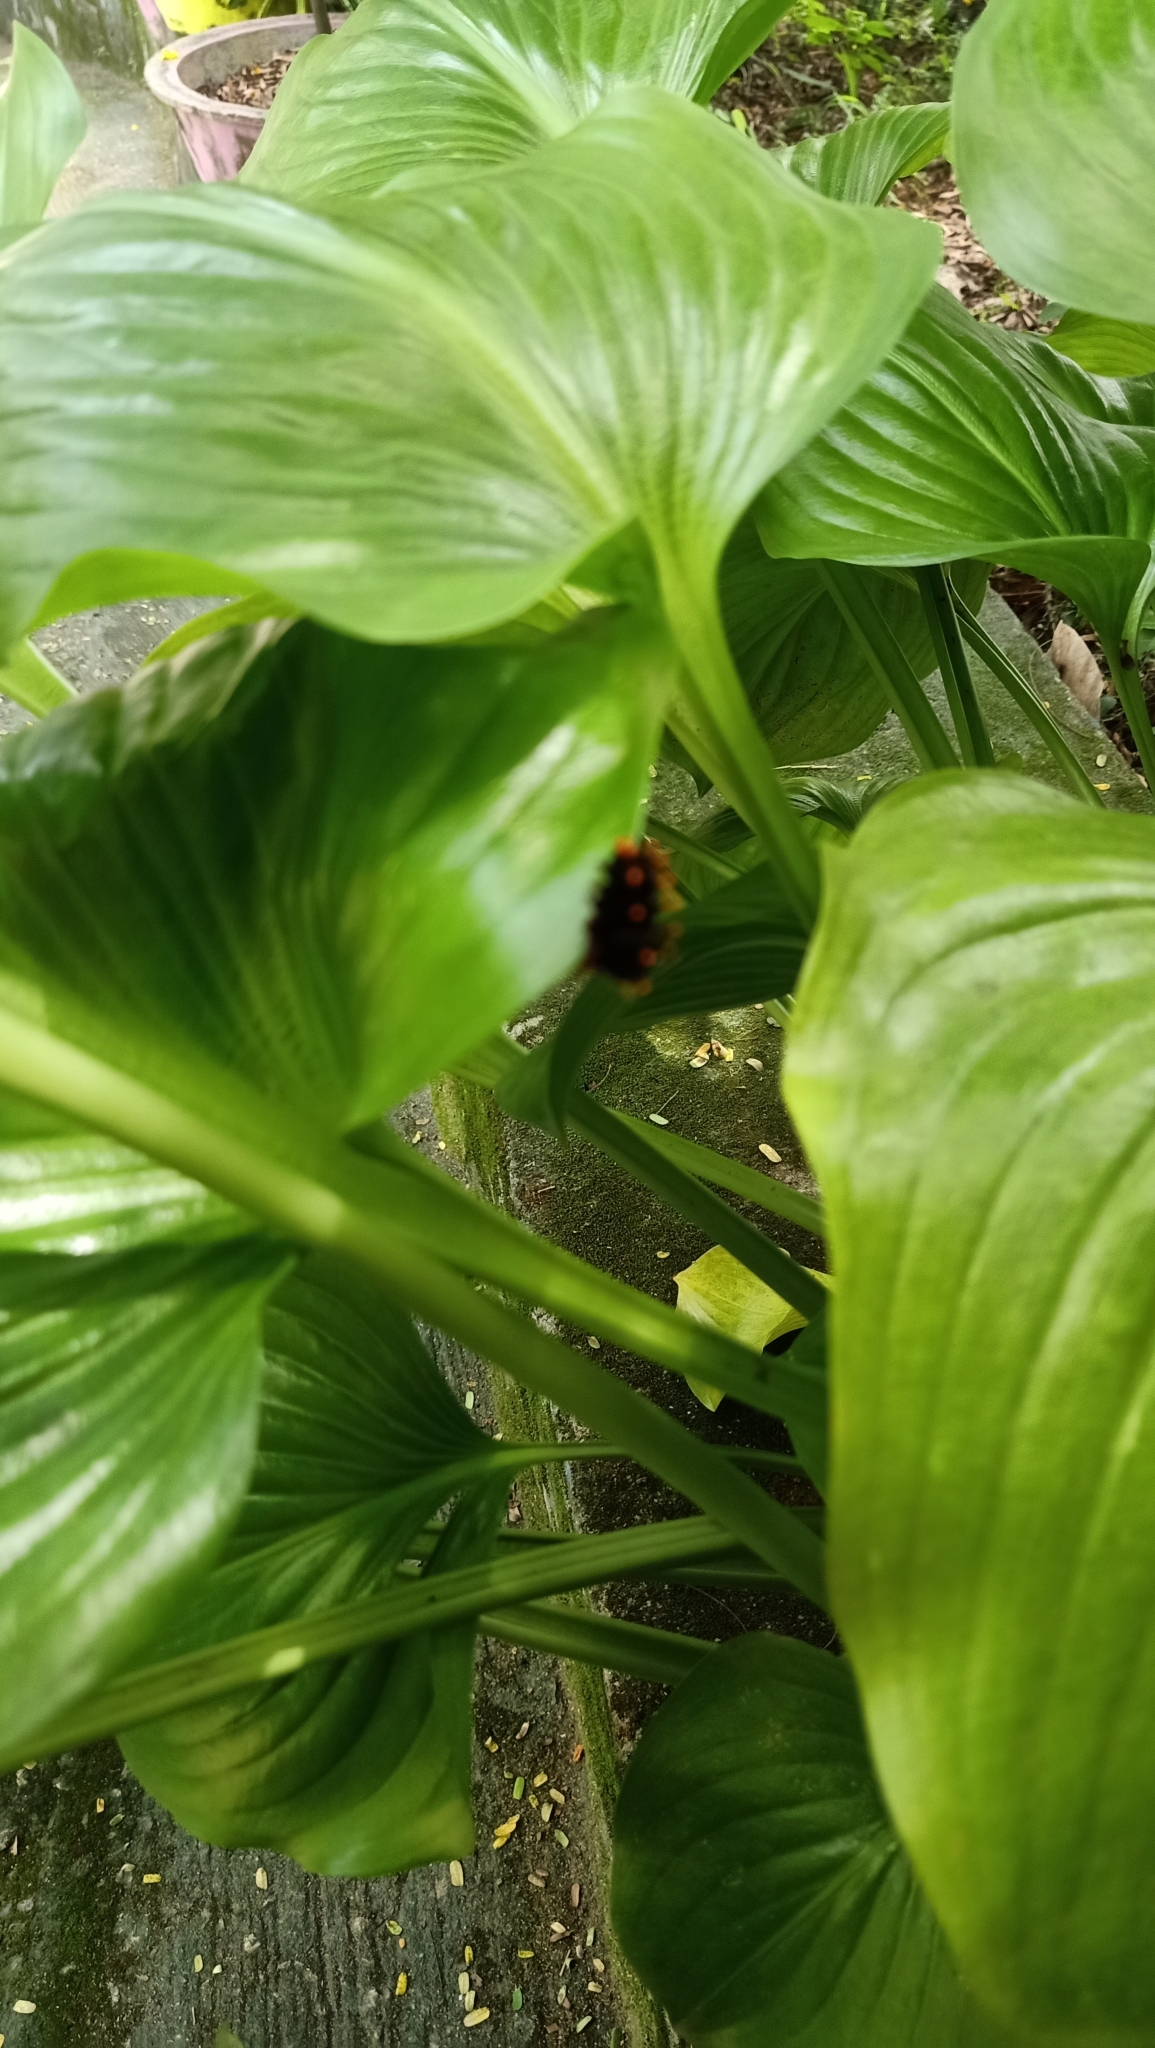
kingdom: Animalia
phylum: Arthropoda
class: Insecta
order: Lepidoptera
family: Papilionidae
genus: Troides
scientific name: Troides minos
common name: Malabar birdwing
